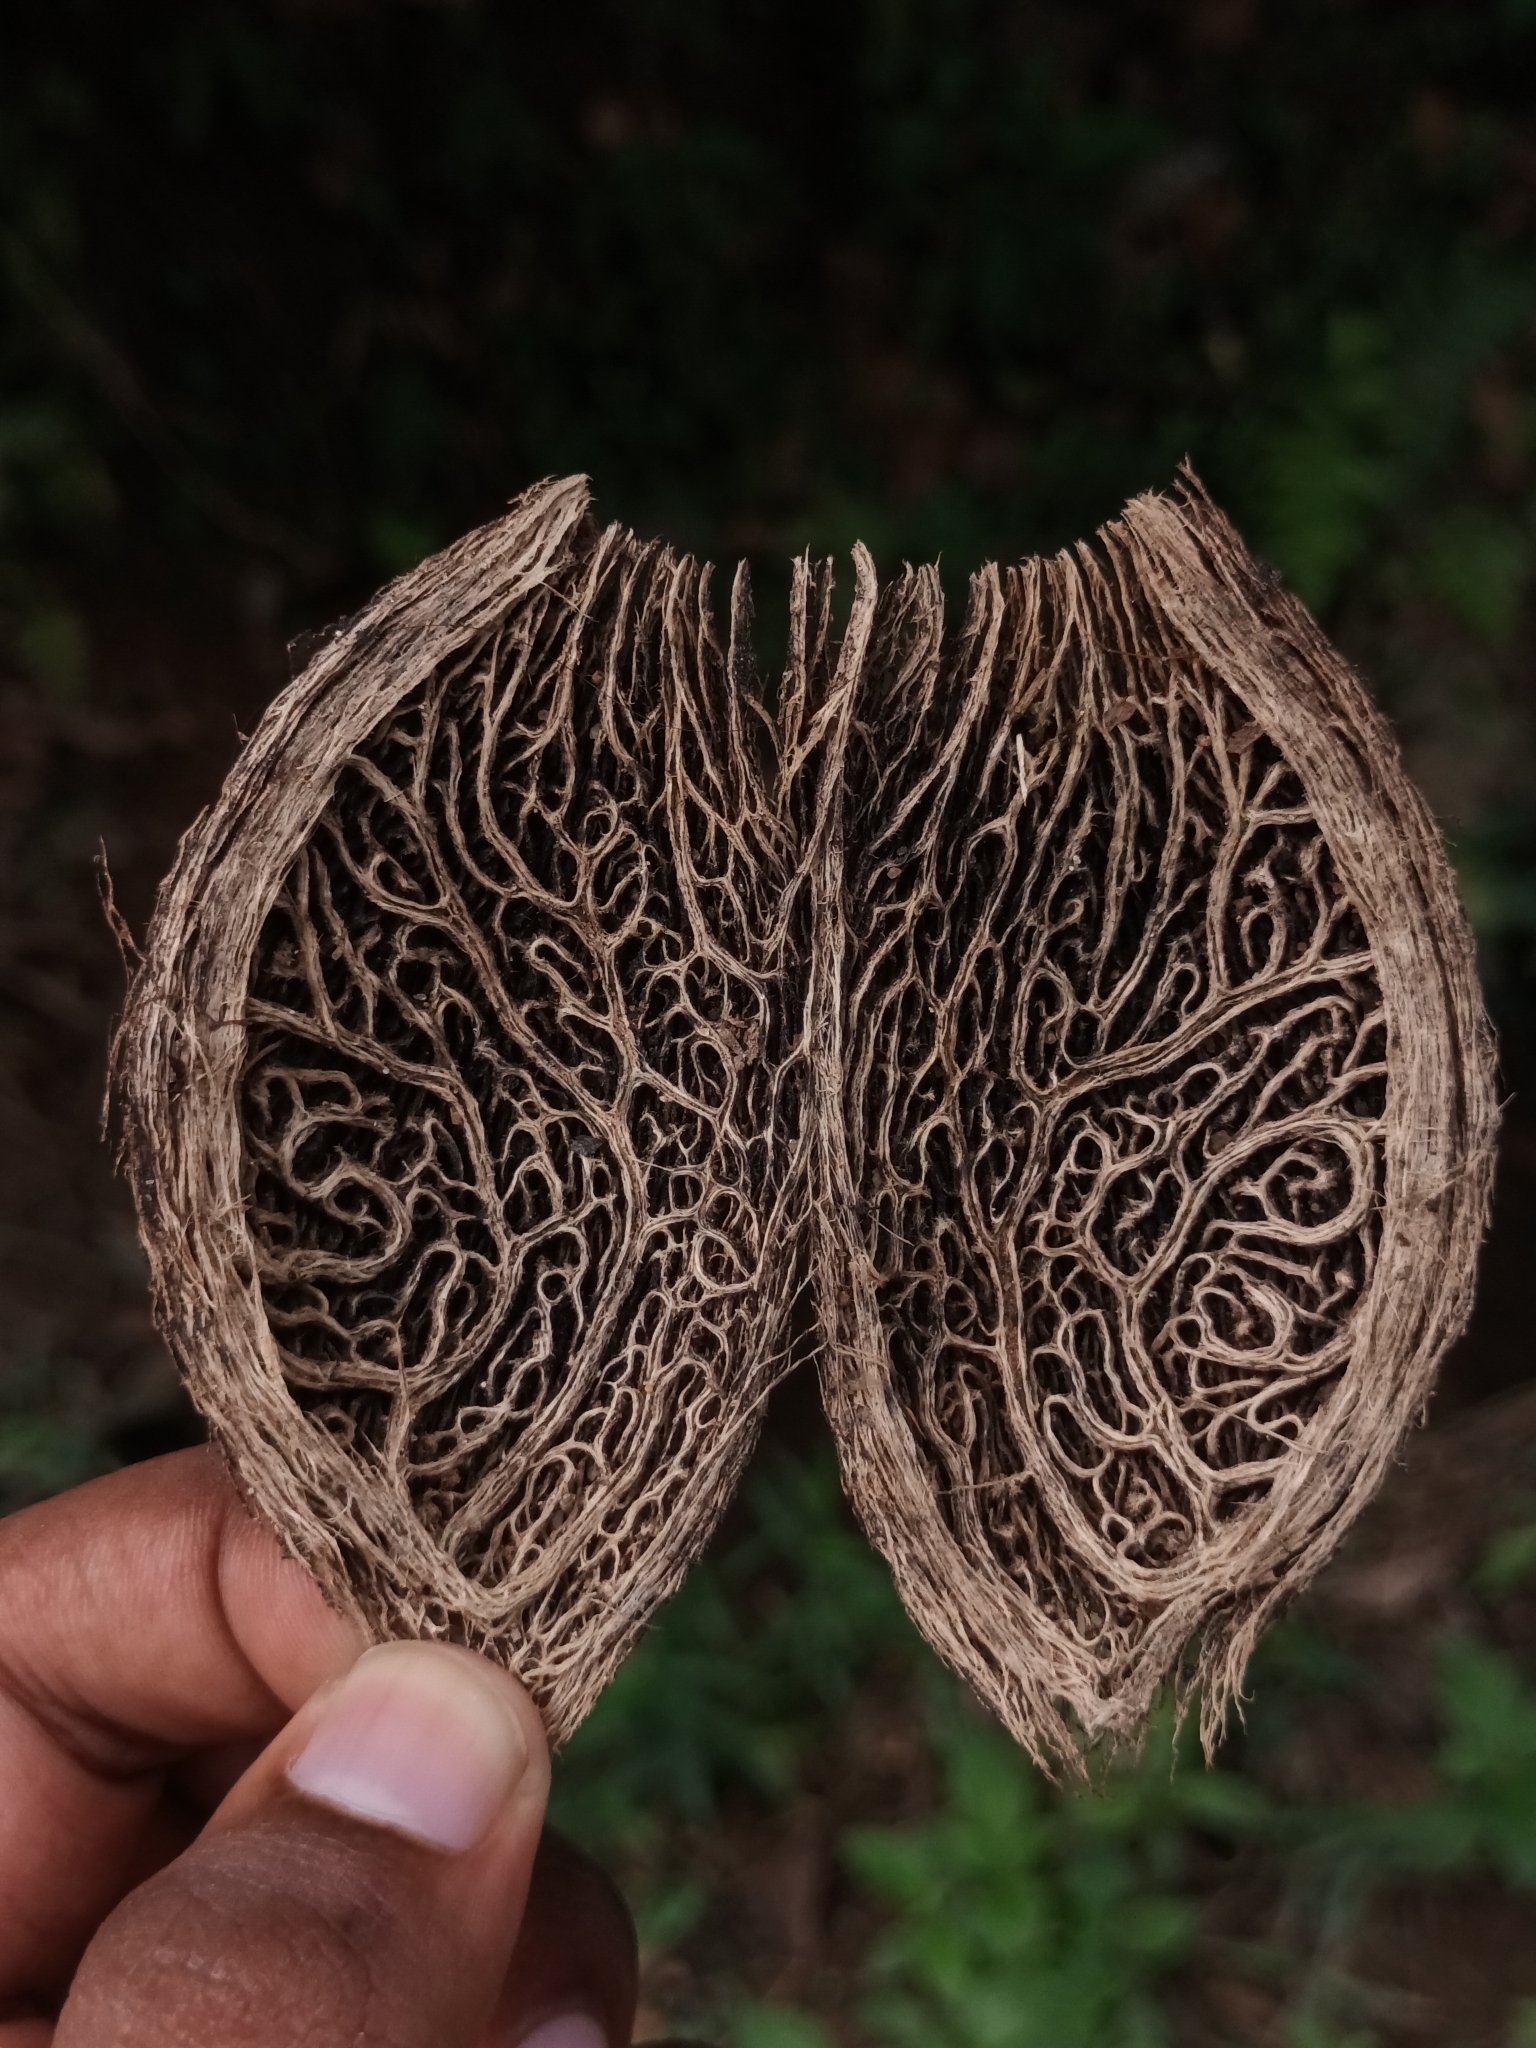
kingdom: Plantae
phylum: Tracheophyta
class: Magnoliopsida
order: Myrtales
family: Combretaceae
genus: Terminalia
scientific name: Terminalia catappa
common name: Tropical almond
